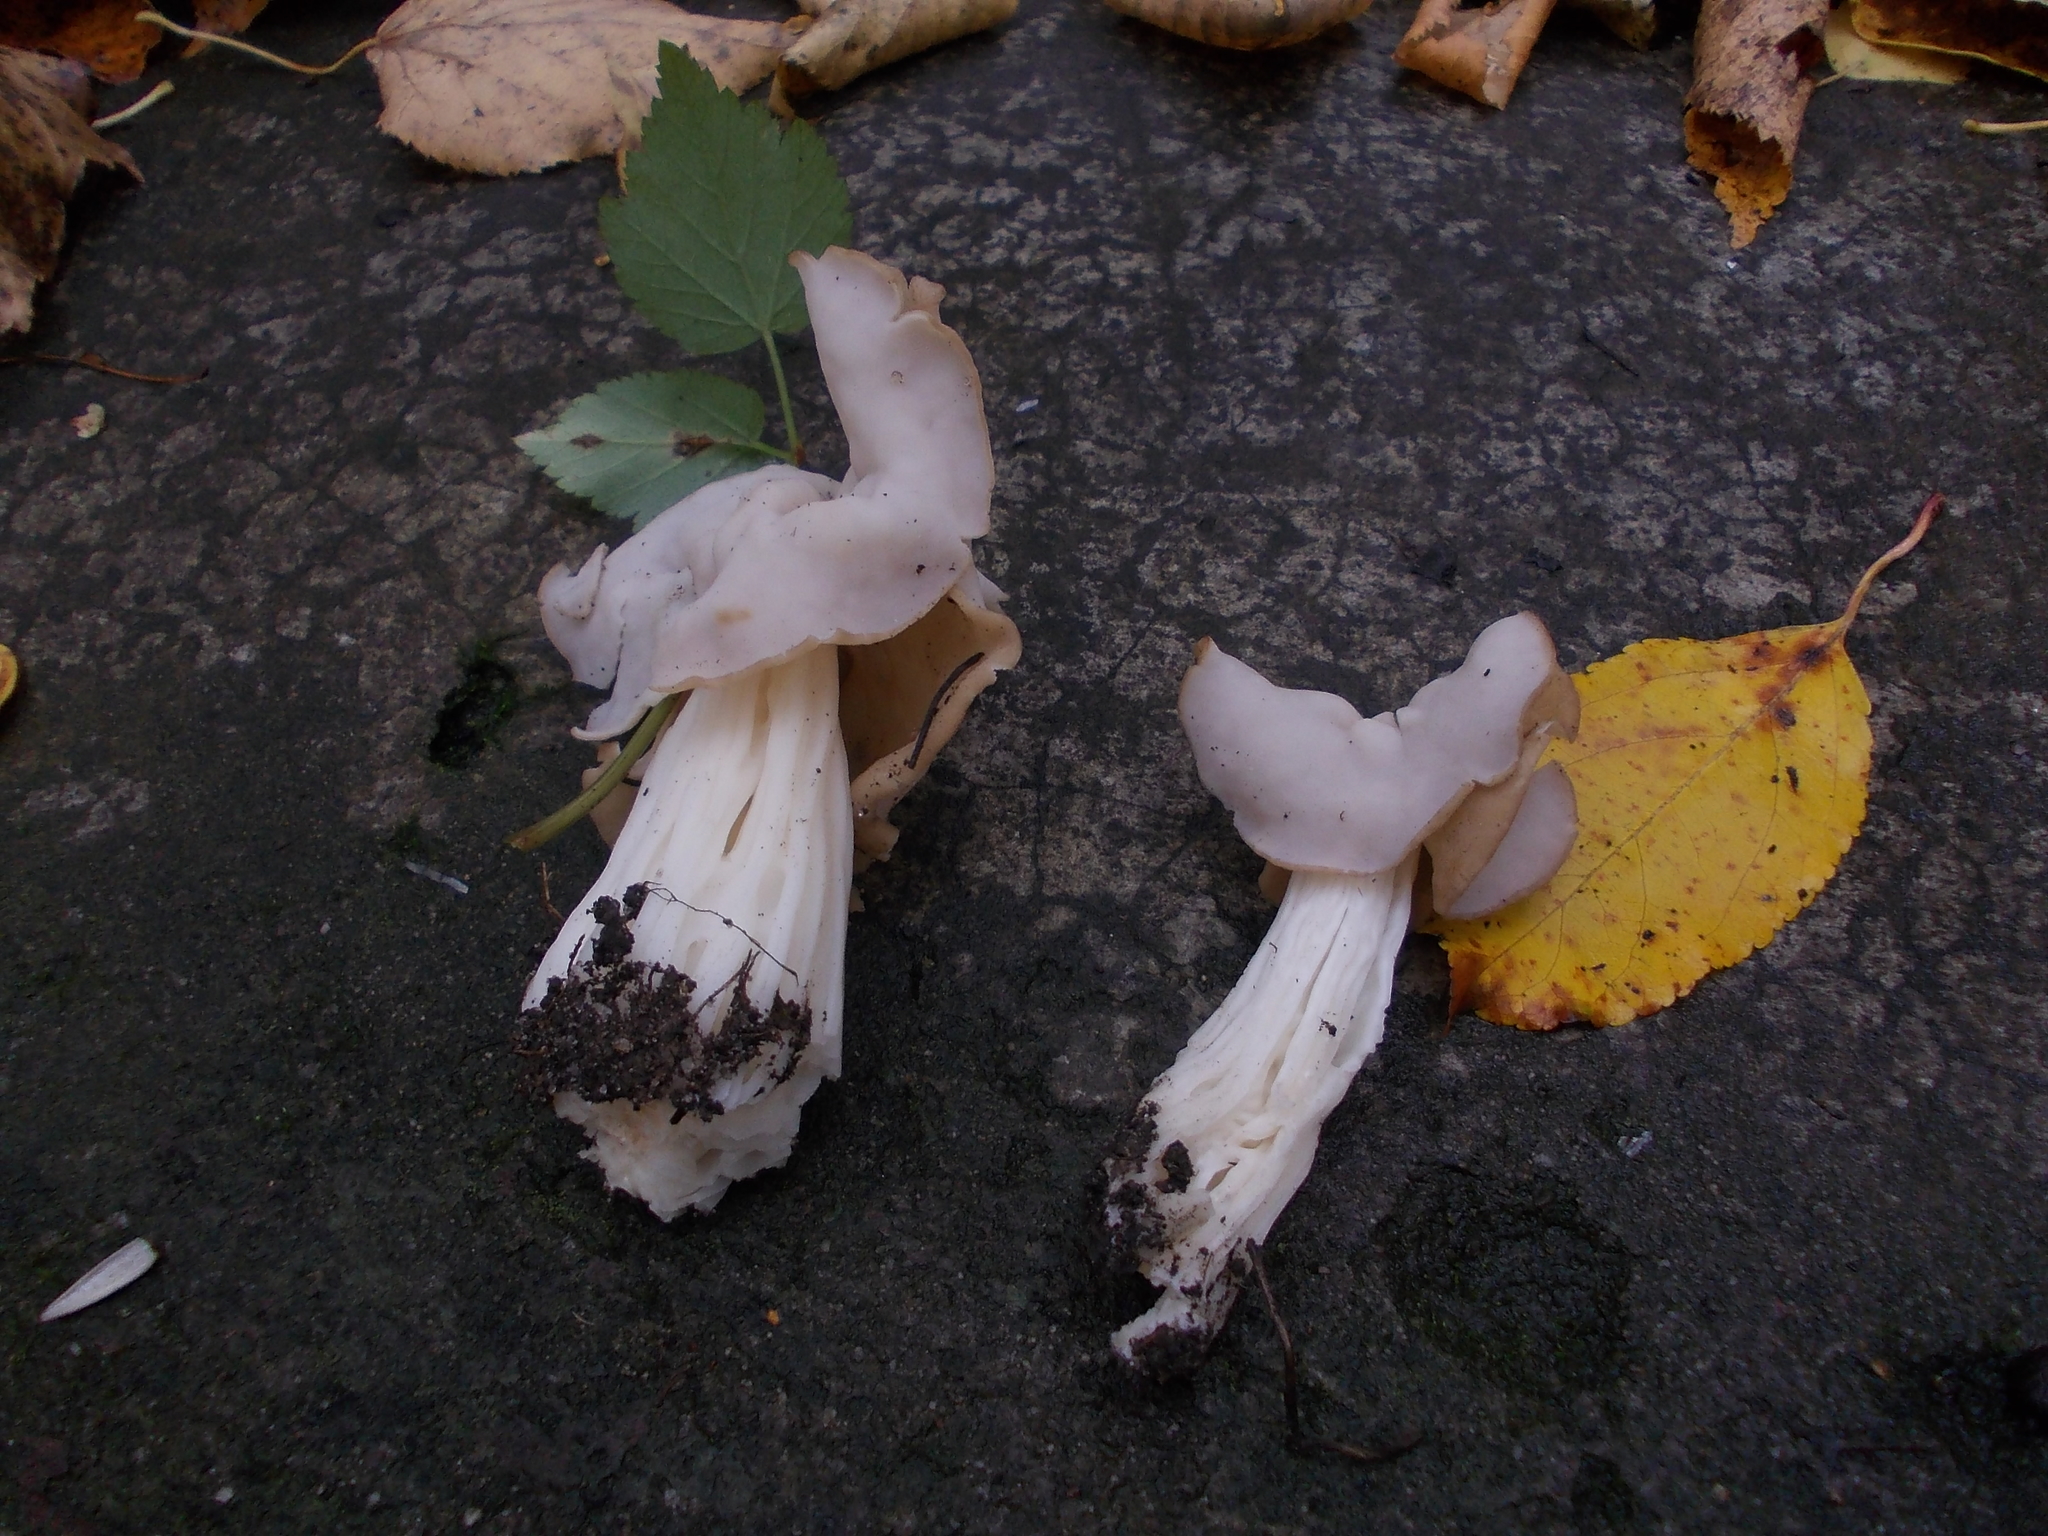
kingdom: Fungi
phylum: Ascomycota
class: Pezizomycetes
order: Pezizales
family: Helvellaceae
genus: Helvella
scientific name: Helvella crispa
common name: White saddle
